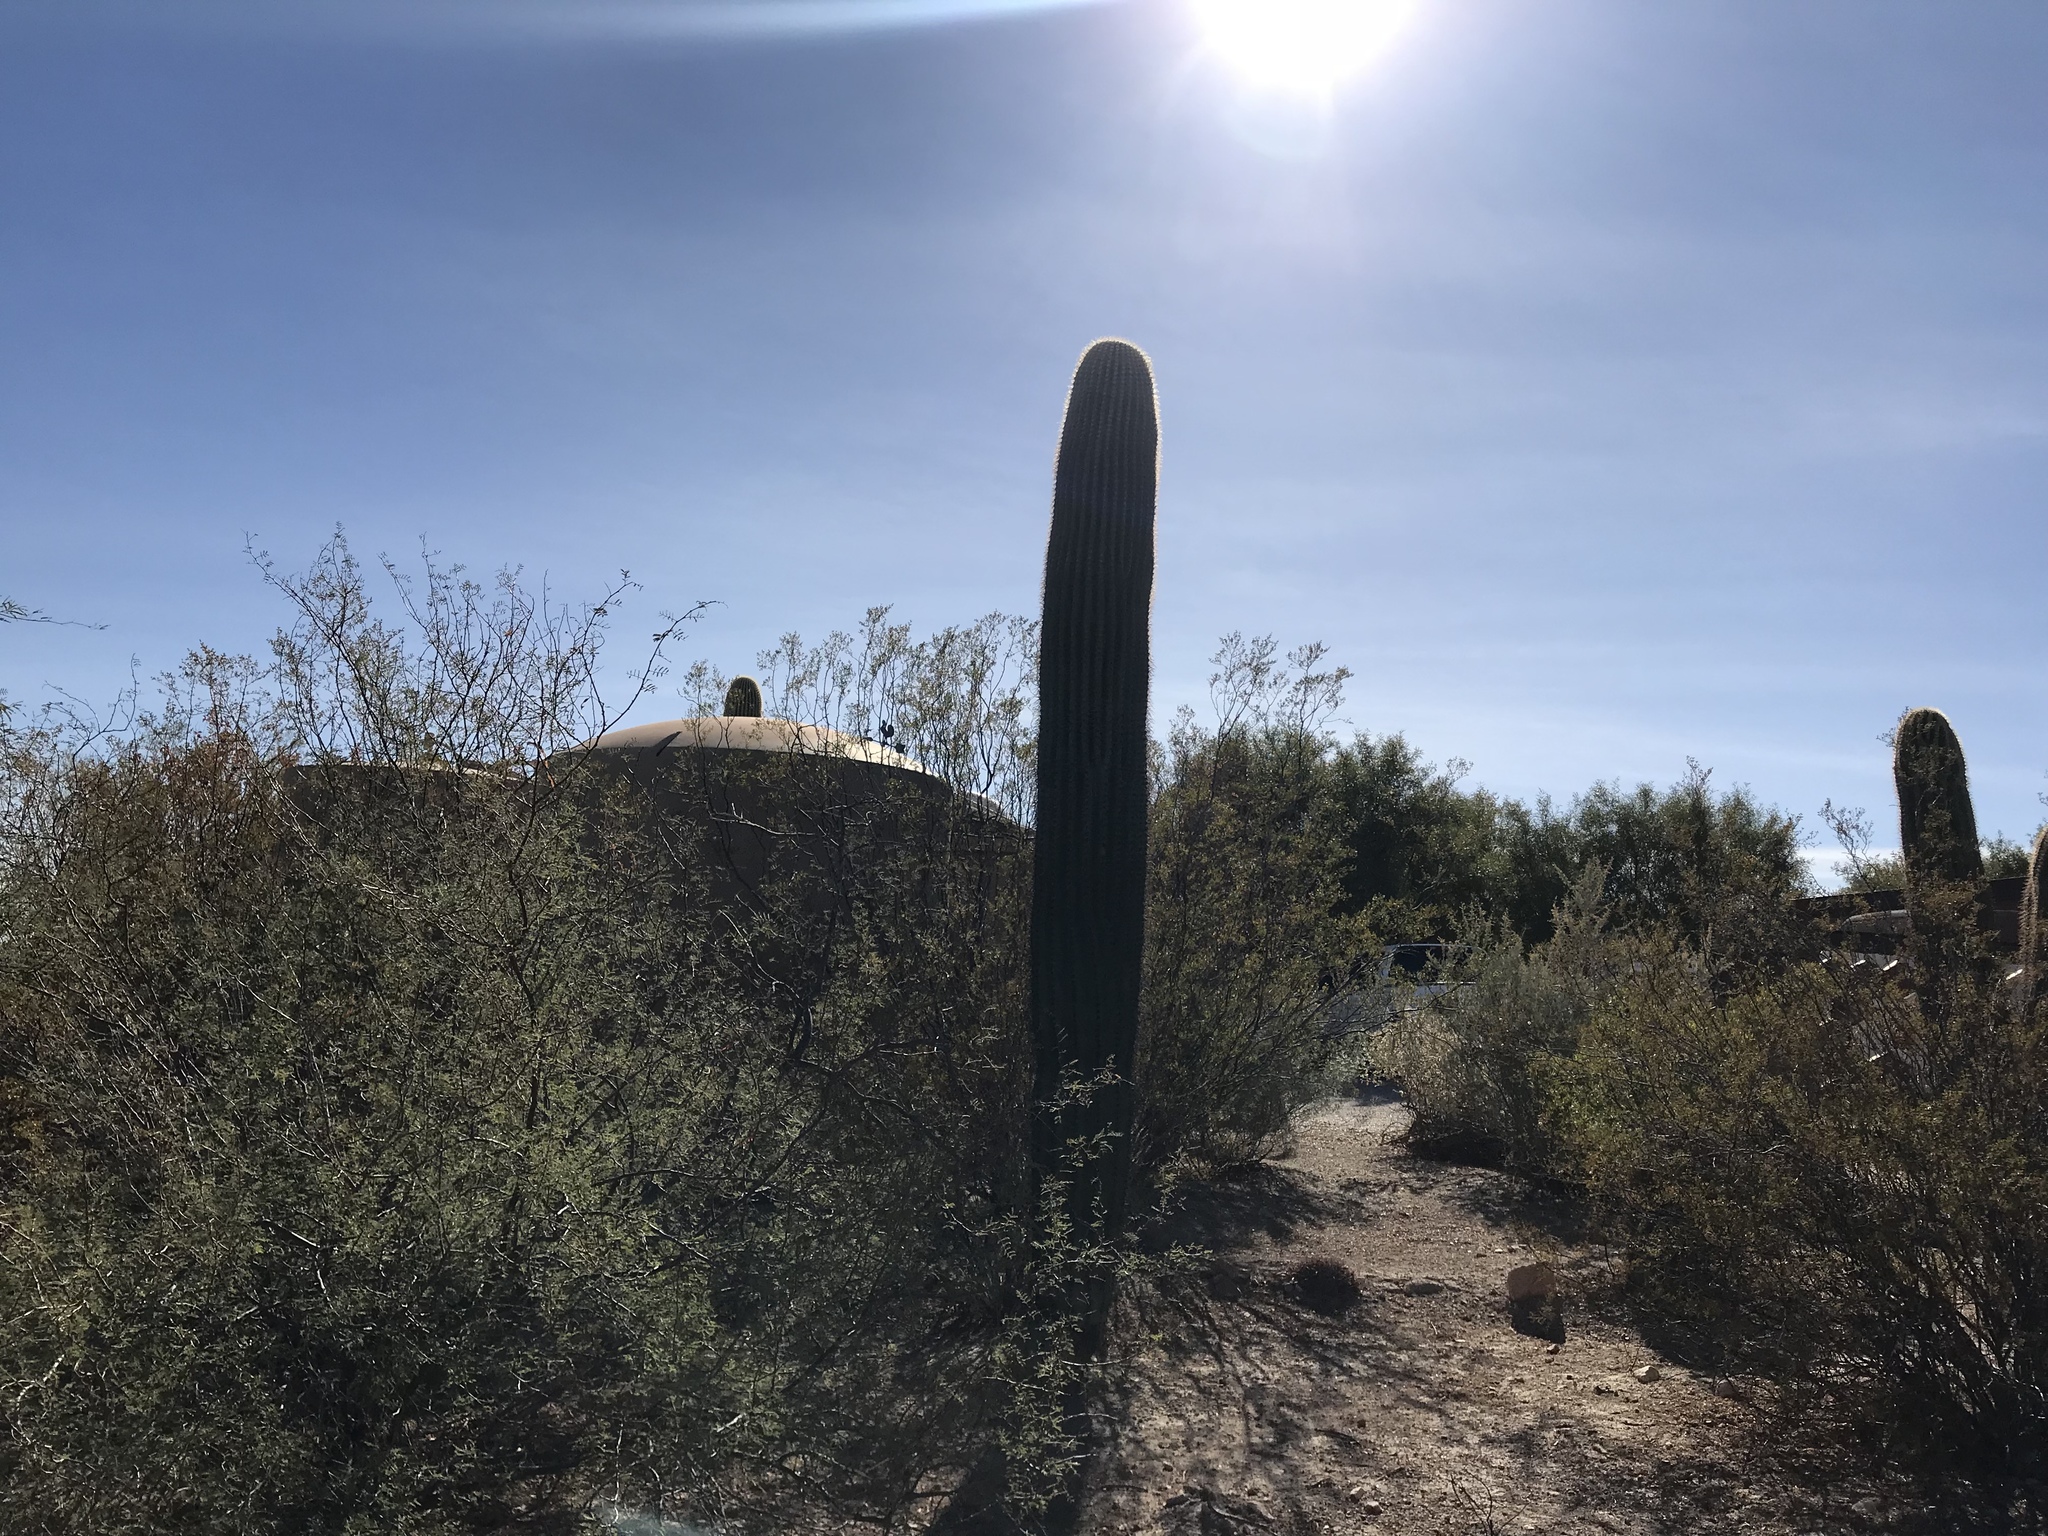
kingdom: Plantae
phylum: Tracheophyta
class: Magnoliopsida
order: Caryophyllales
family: Cactaceae
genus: Carnegiea
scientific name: Carnegiea gigantea
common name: Saguaro
